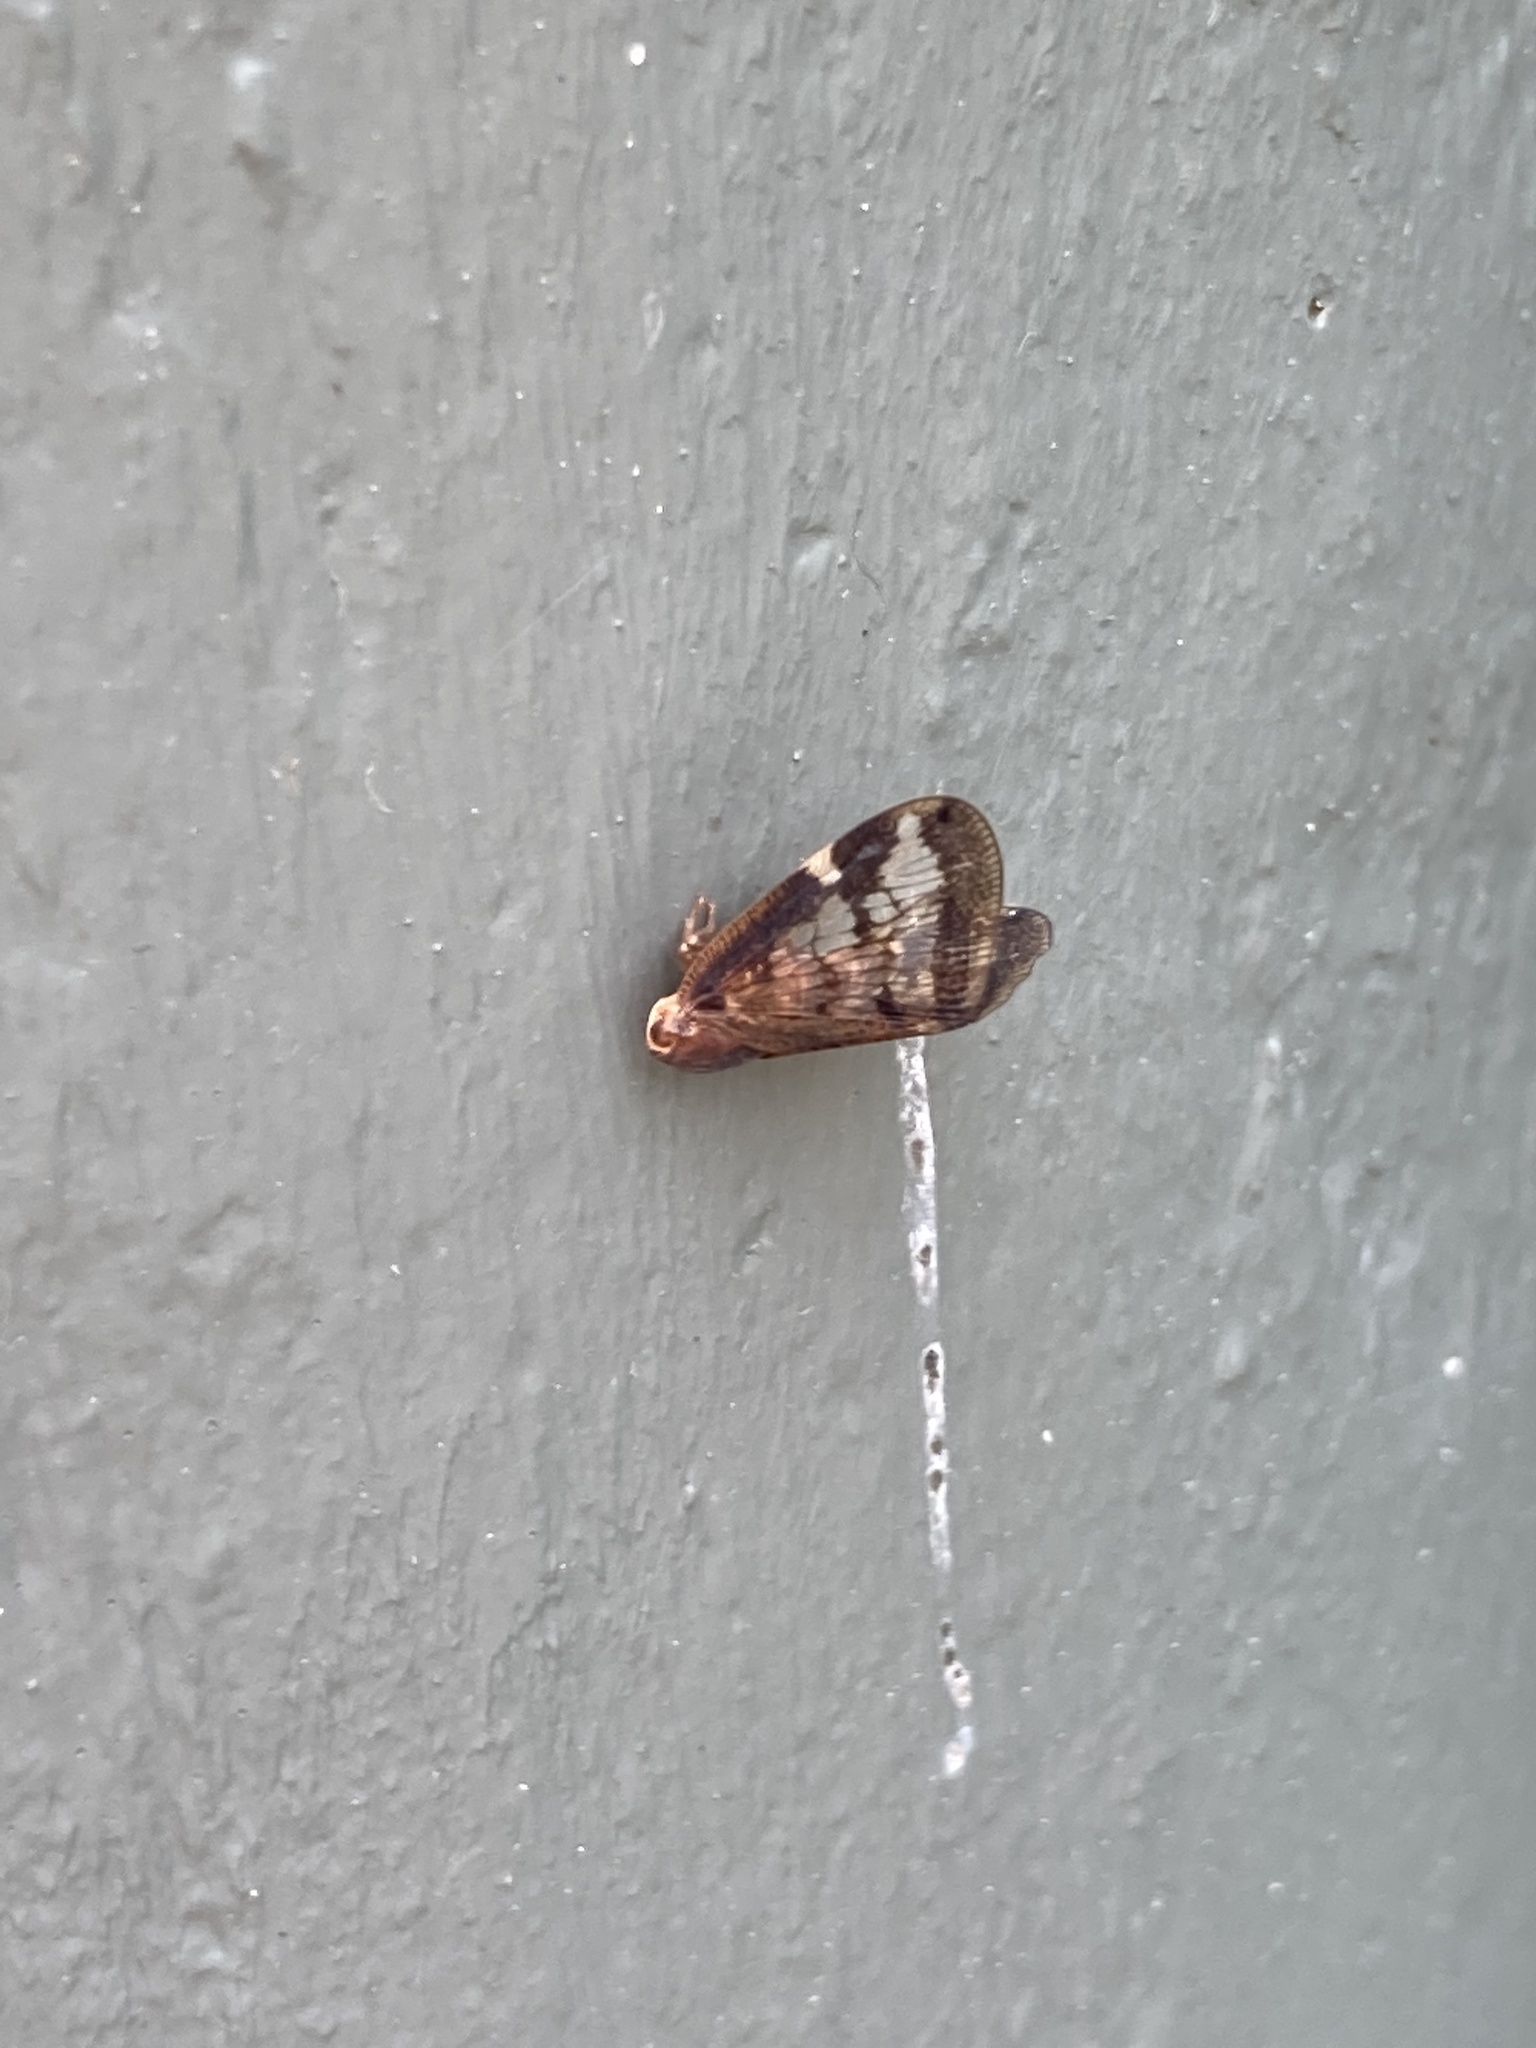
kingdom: Animalia
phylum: Arthropoda
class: Insecta
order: Hemiptera
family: Ricaniidae
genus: Scolypopa
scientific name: Scolypopa australis
